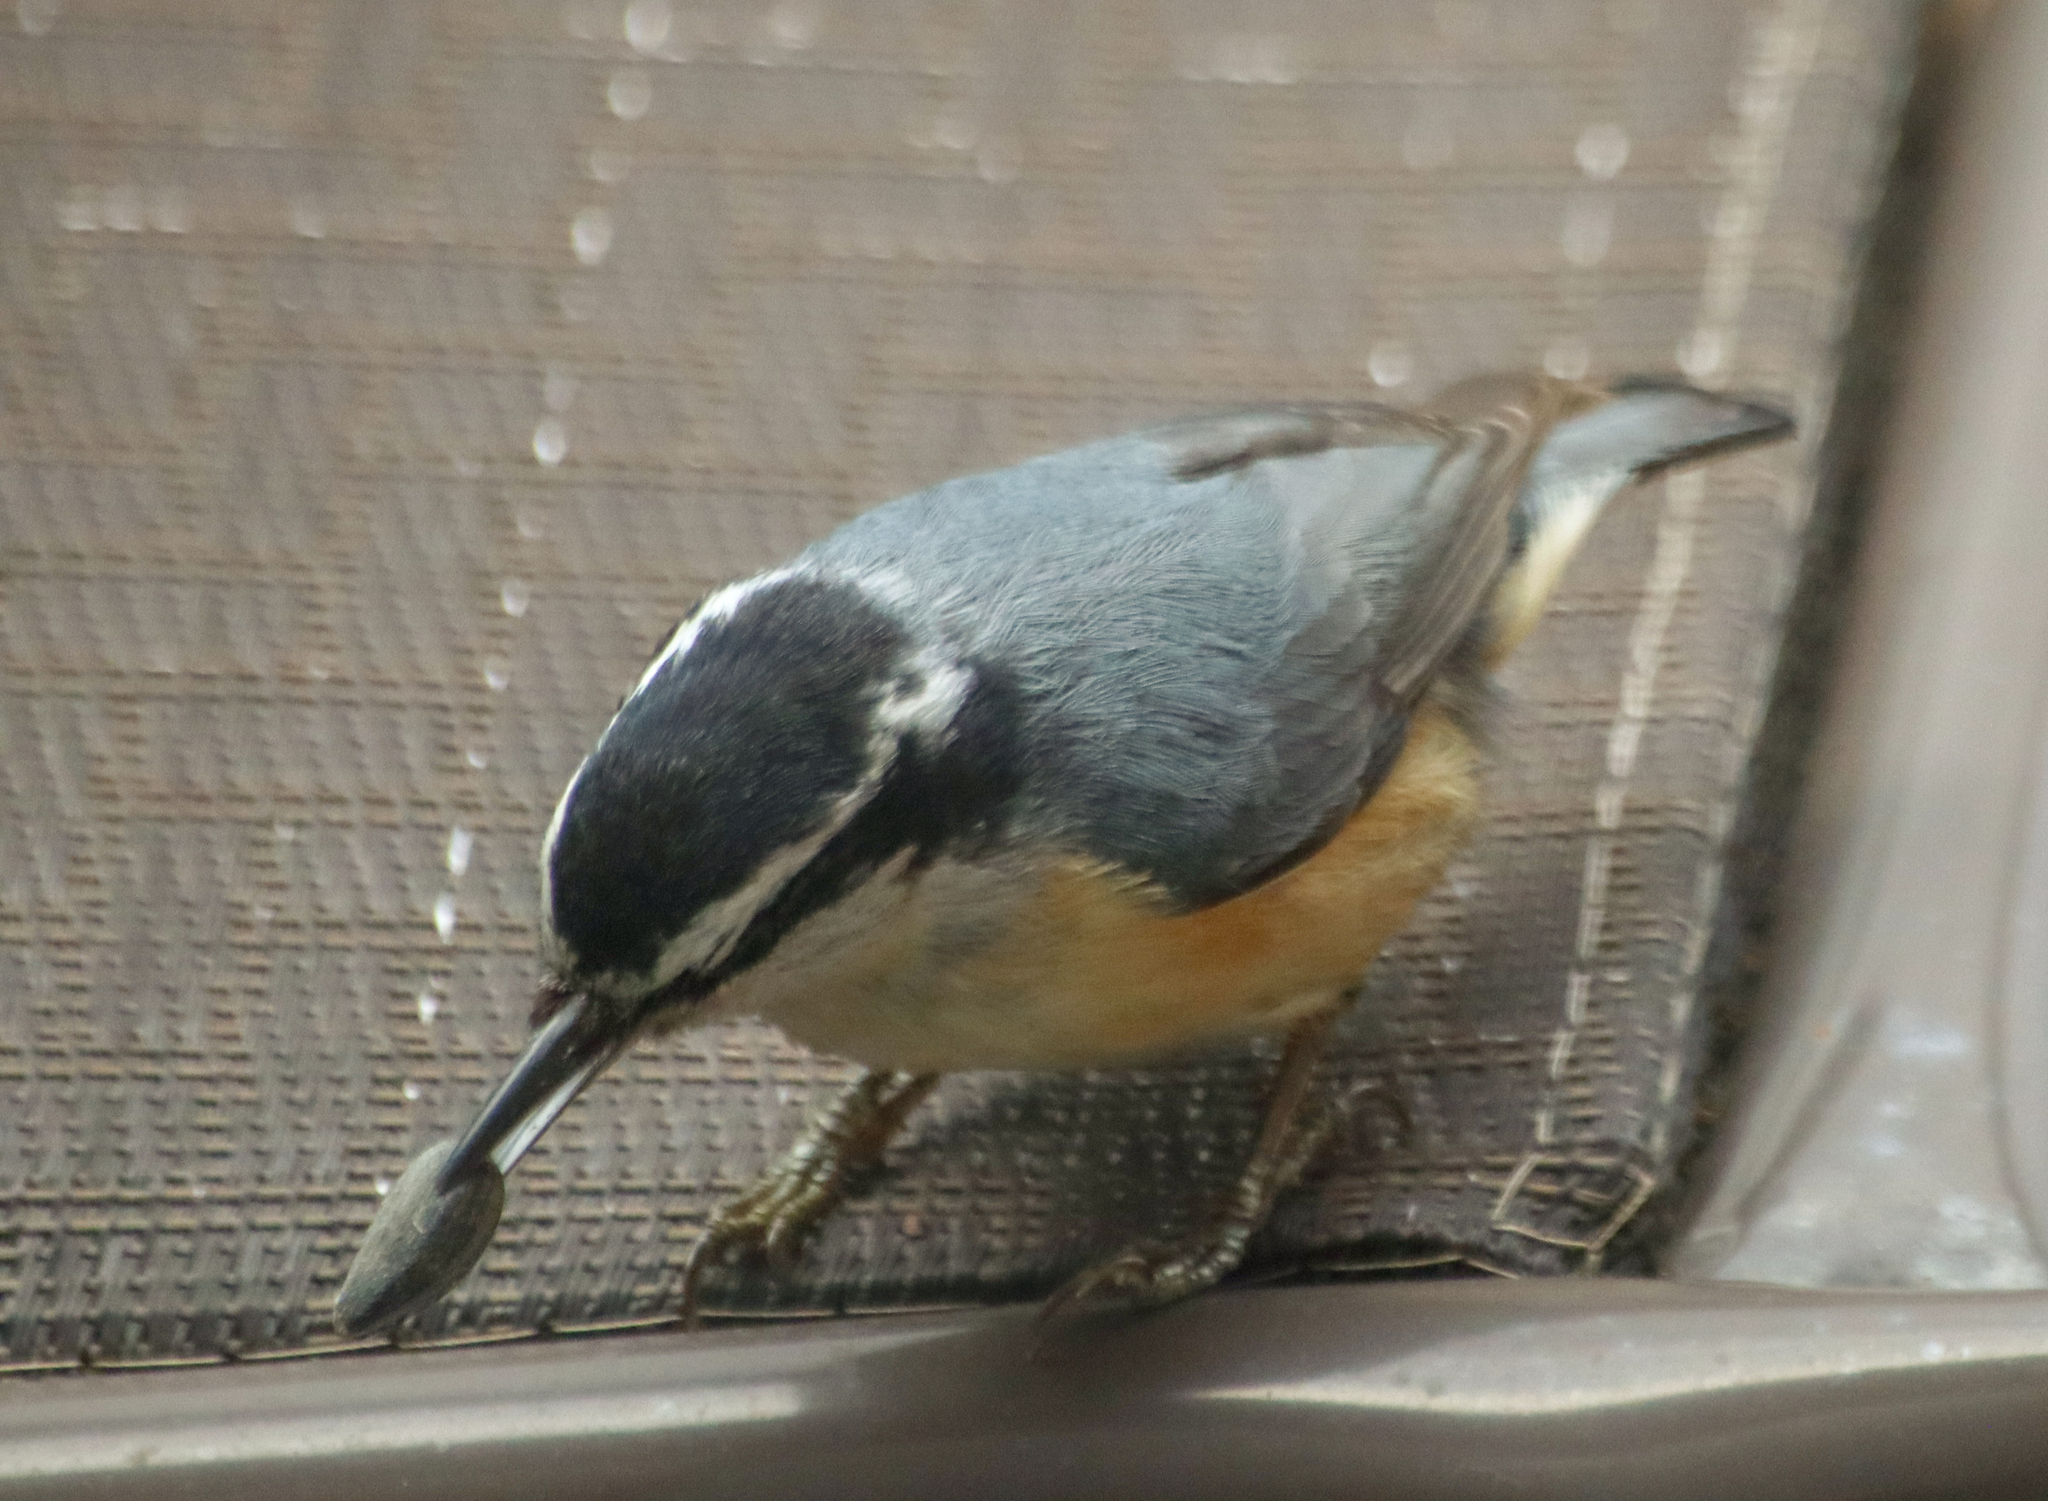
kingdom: Animalia
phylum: Chordata
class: Aves
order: Passeriformes
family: Sittidae
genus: Sitta
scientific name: Sitta canadensis
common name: Red-breasted nuthatch
